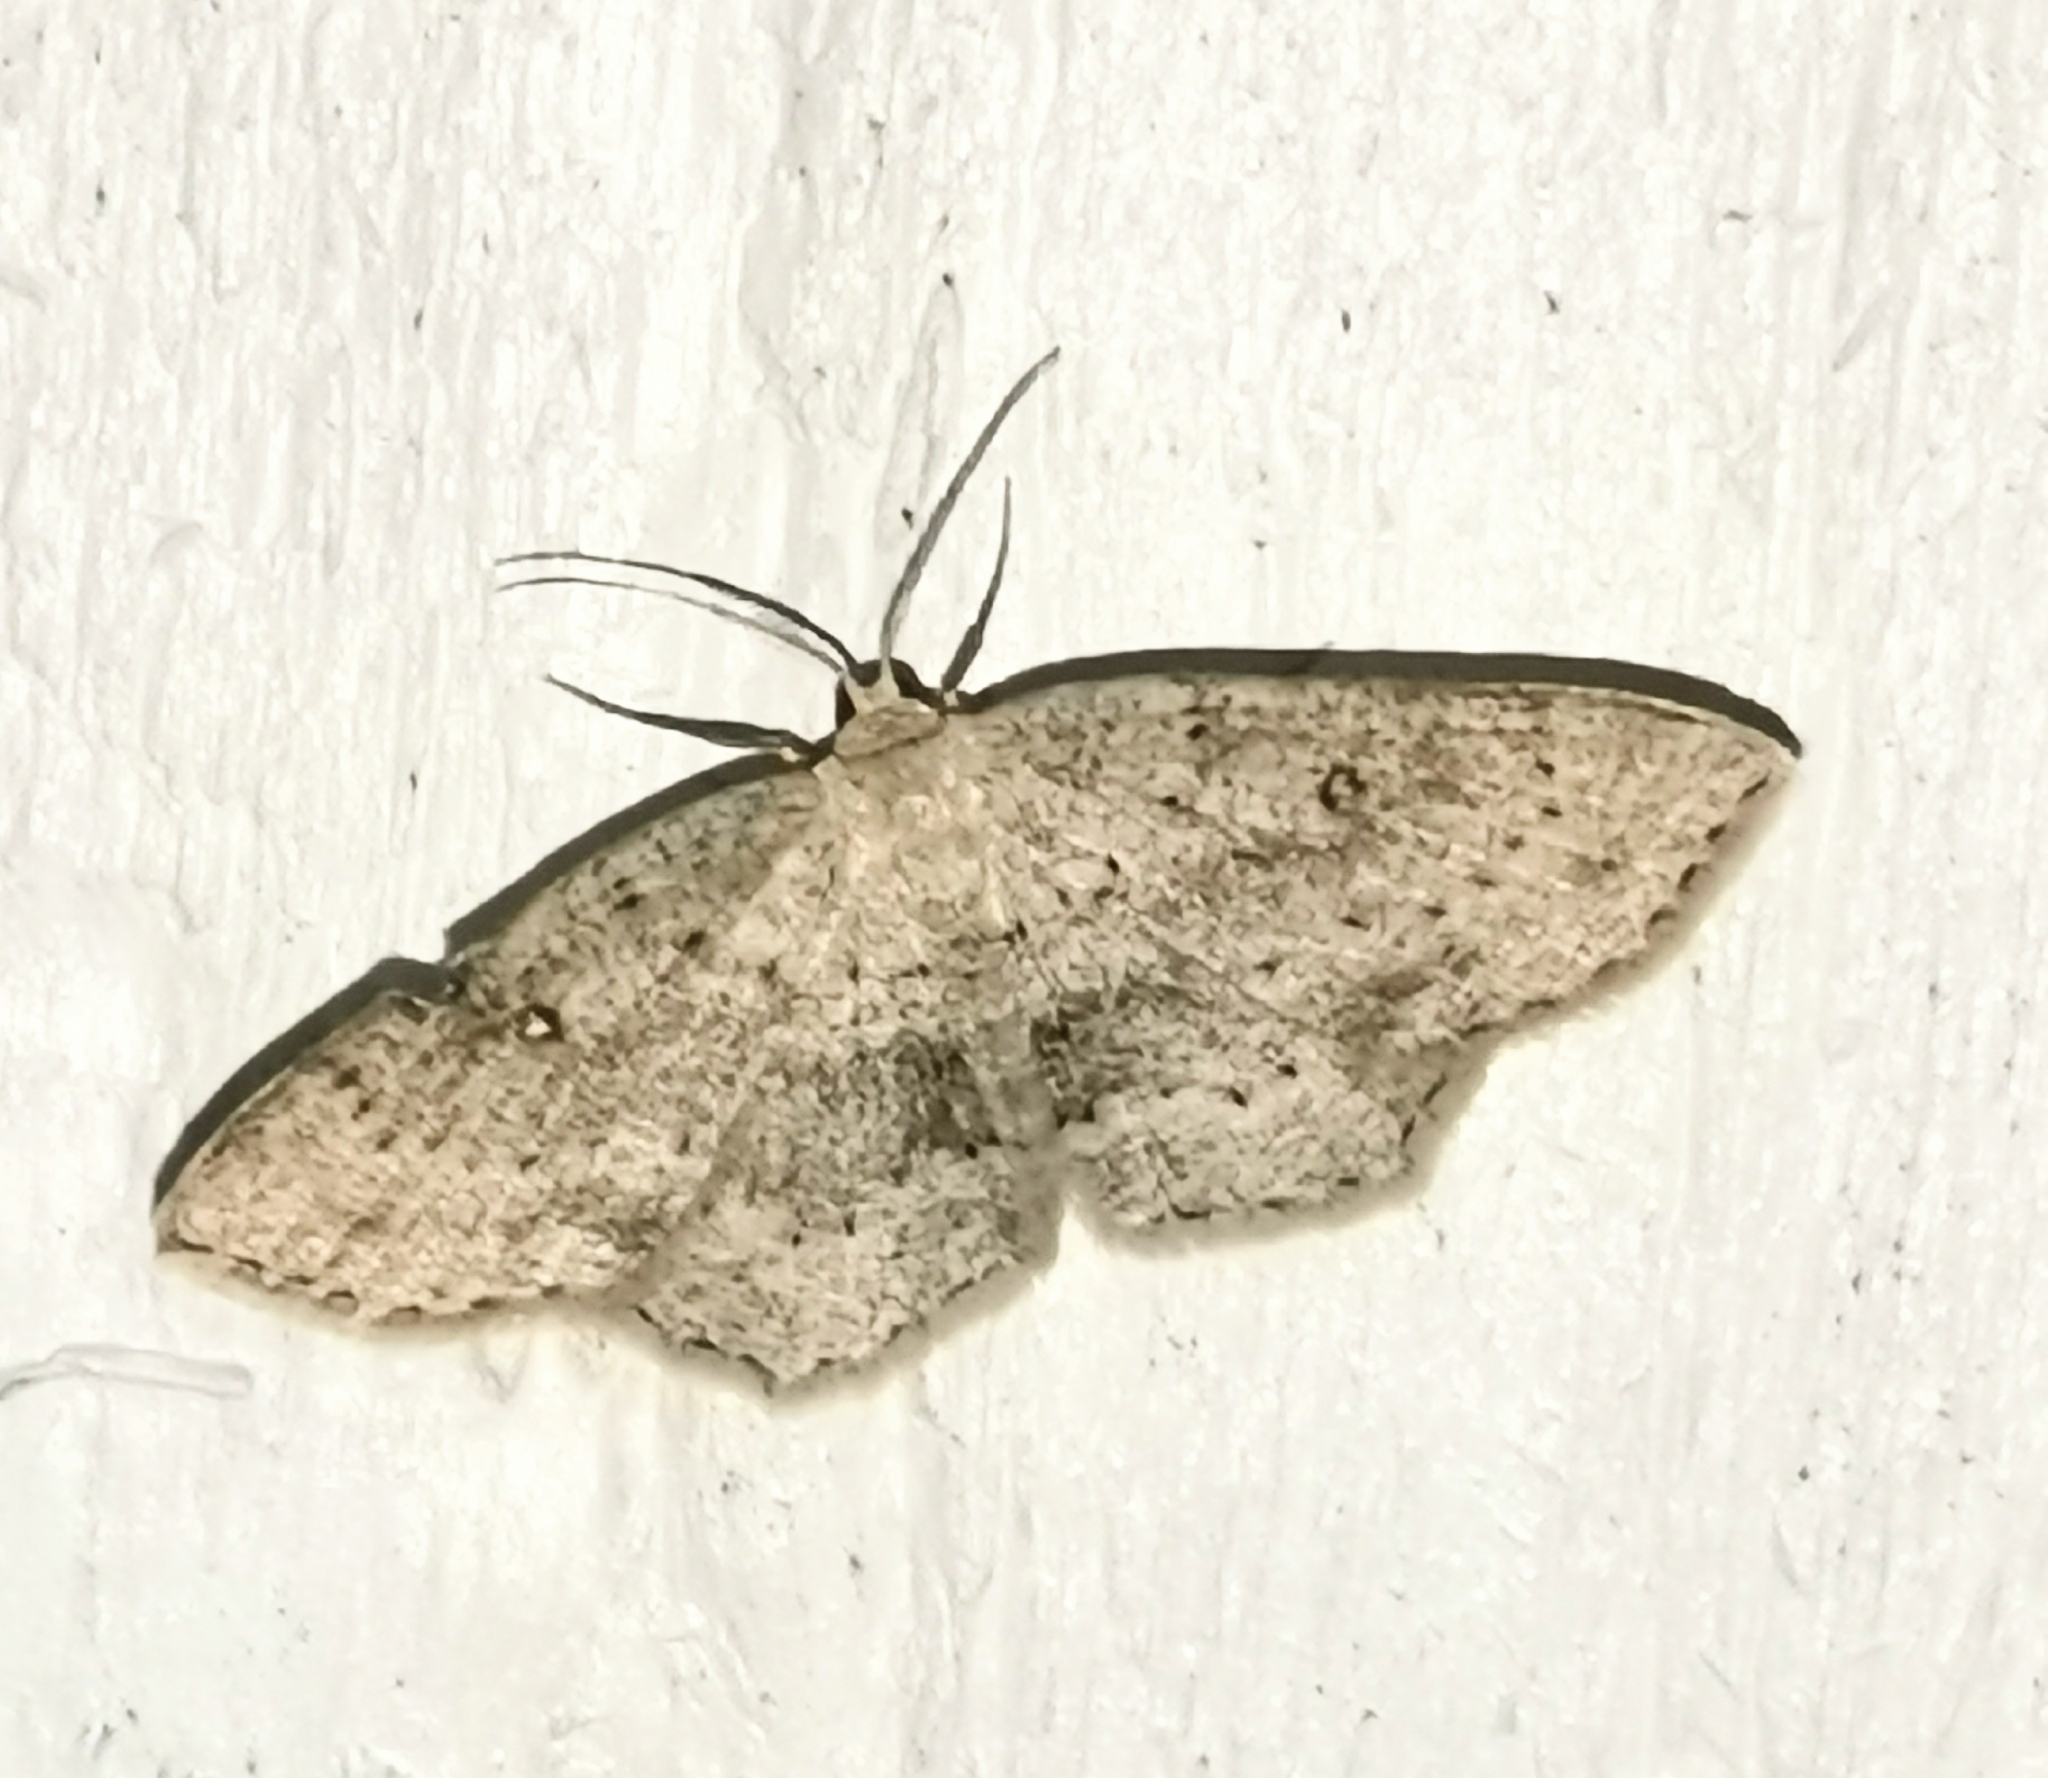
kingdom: Animalia
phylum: Arthropoda
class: Insecta
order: Lepidoptera
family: Geometridae
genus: Cyclophora
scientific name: Cyclophora albipunctata
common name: Birch mocha
